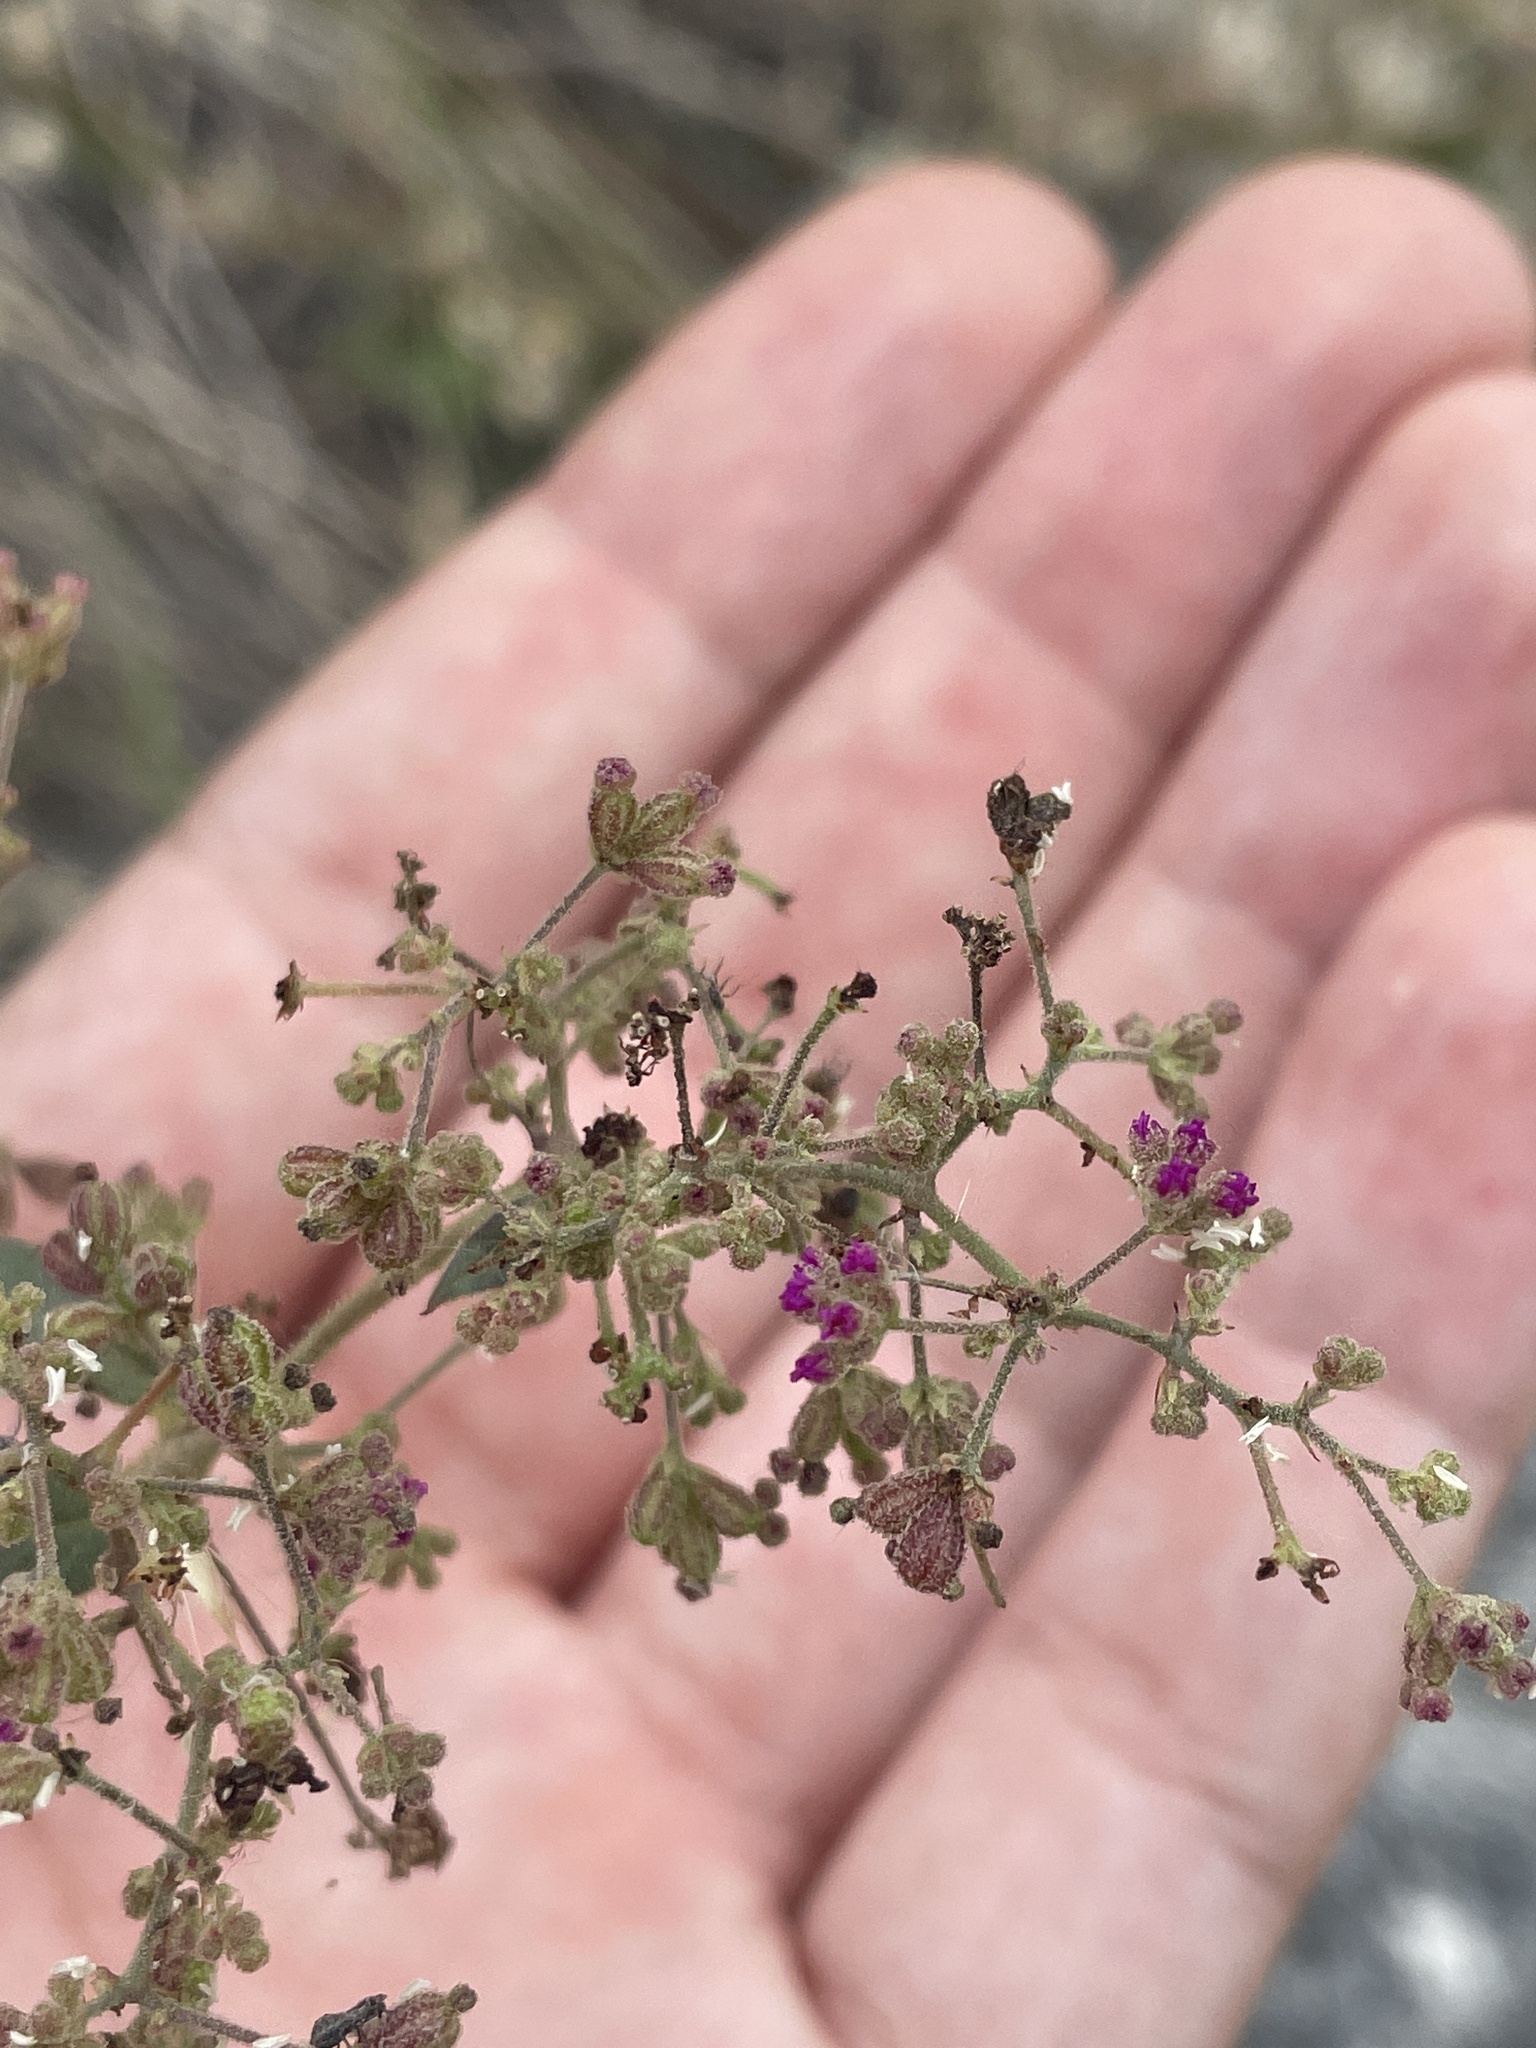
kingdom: Plantae
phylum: Tracheophyta
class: Magnoliopsida
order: Caryophyllales
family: Nyctaginaceae
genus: Boerhavia
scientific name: Boerhavia coccinea
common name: Scarlet spiderling
